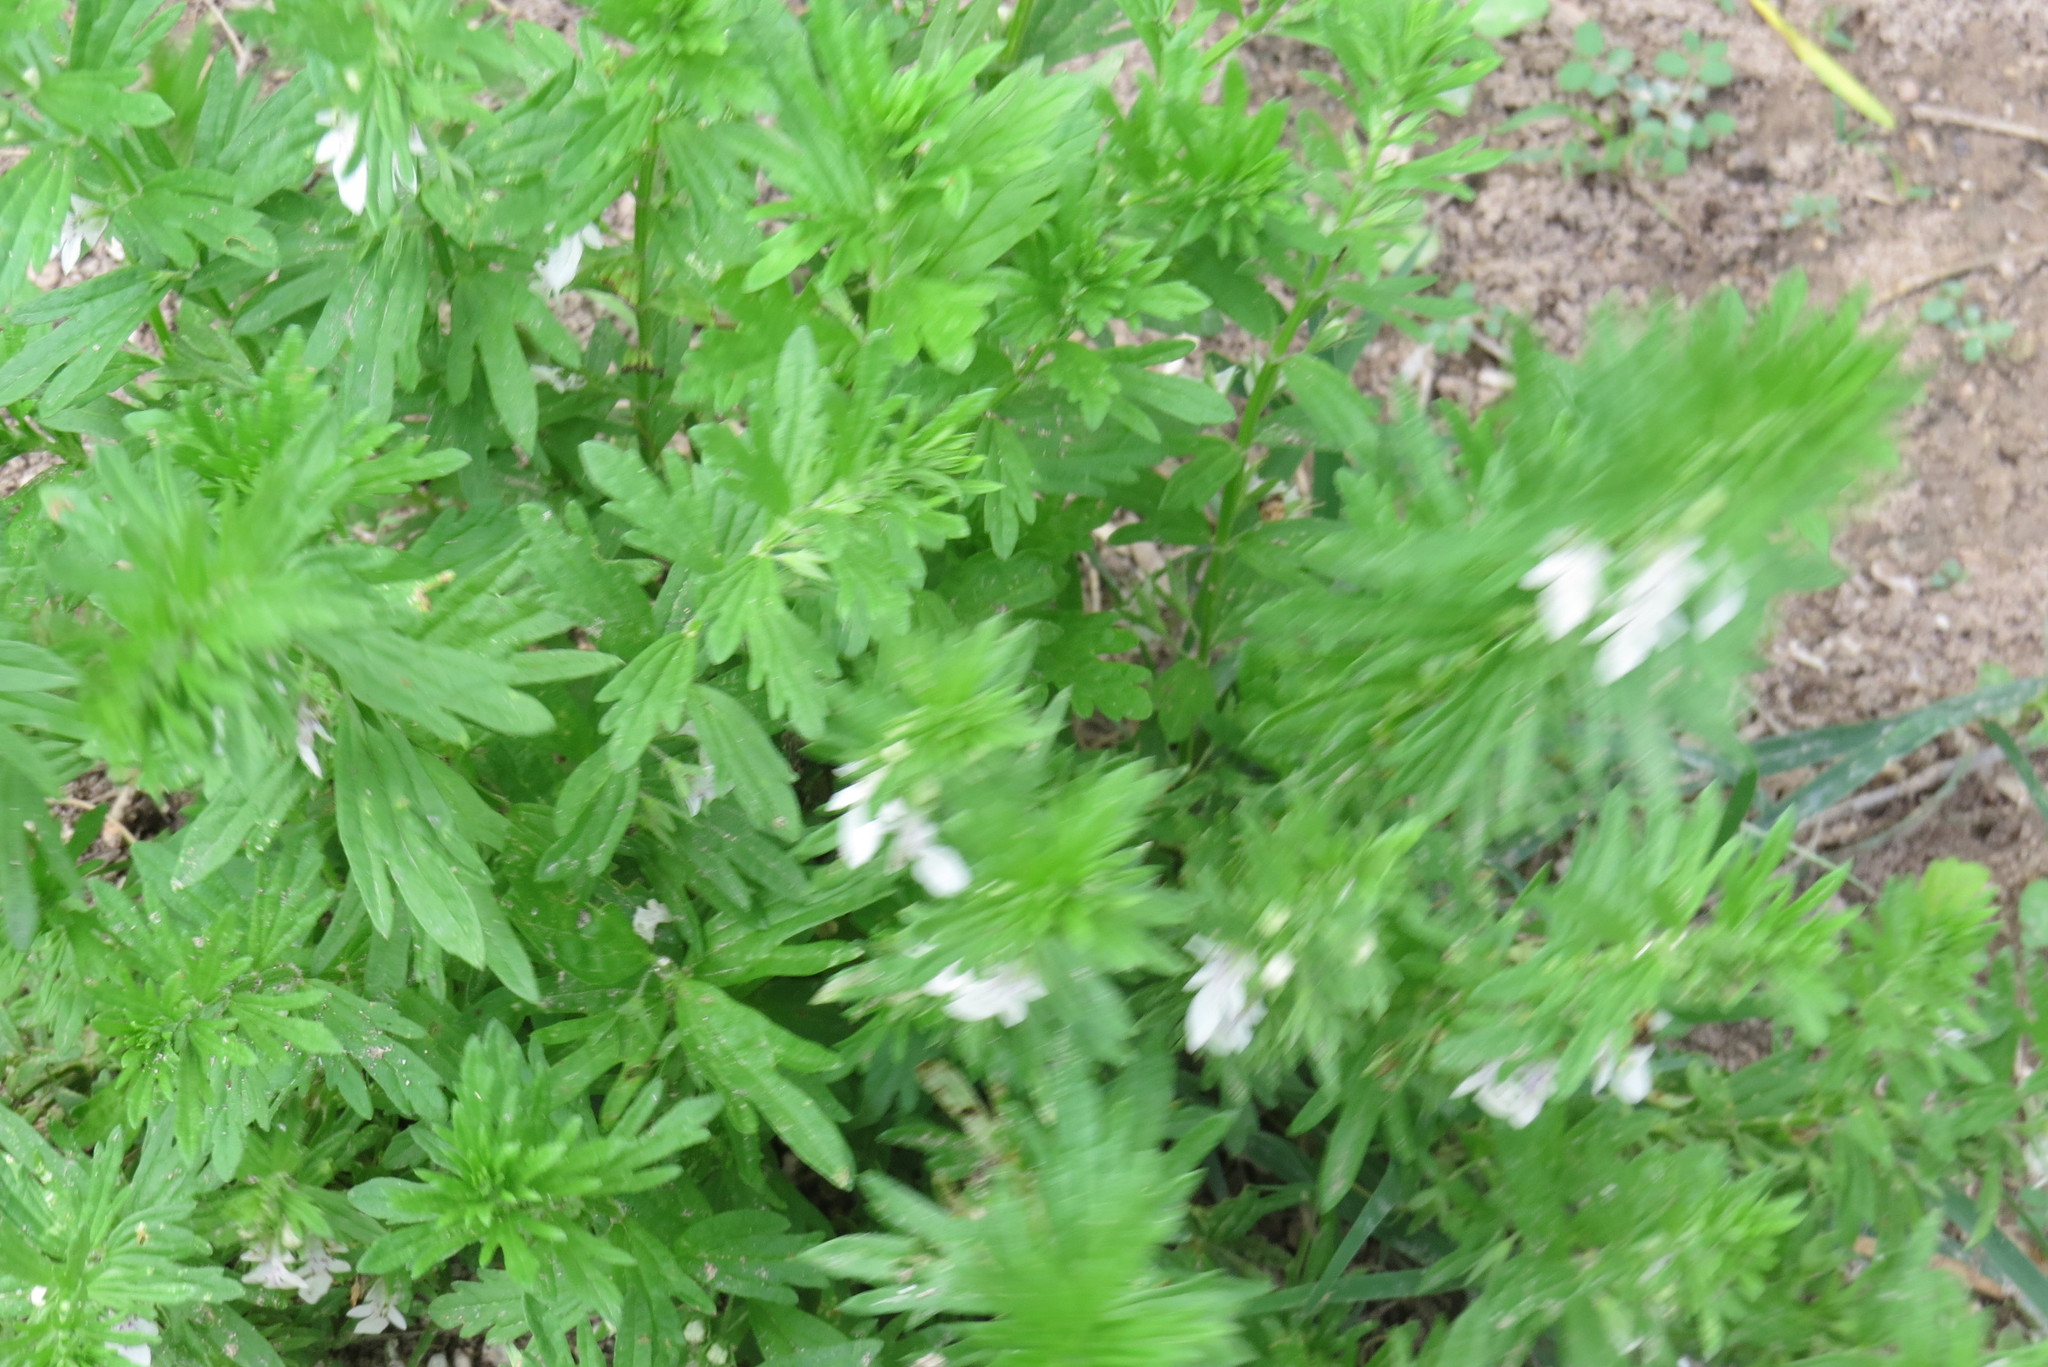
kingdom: Plantae
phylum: Tracheophyta
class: Magnoliopsida
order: Lamiales
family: Lamiaceae
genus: Teucrium
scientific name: Teucrium cubense
